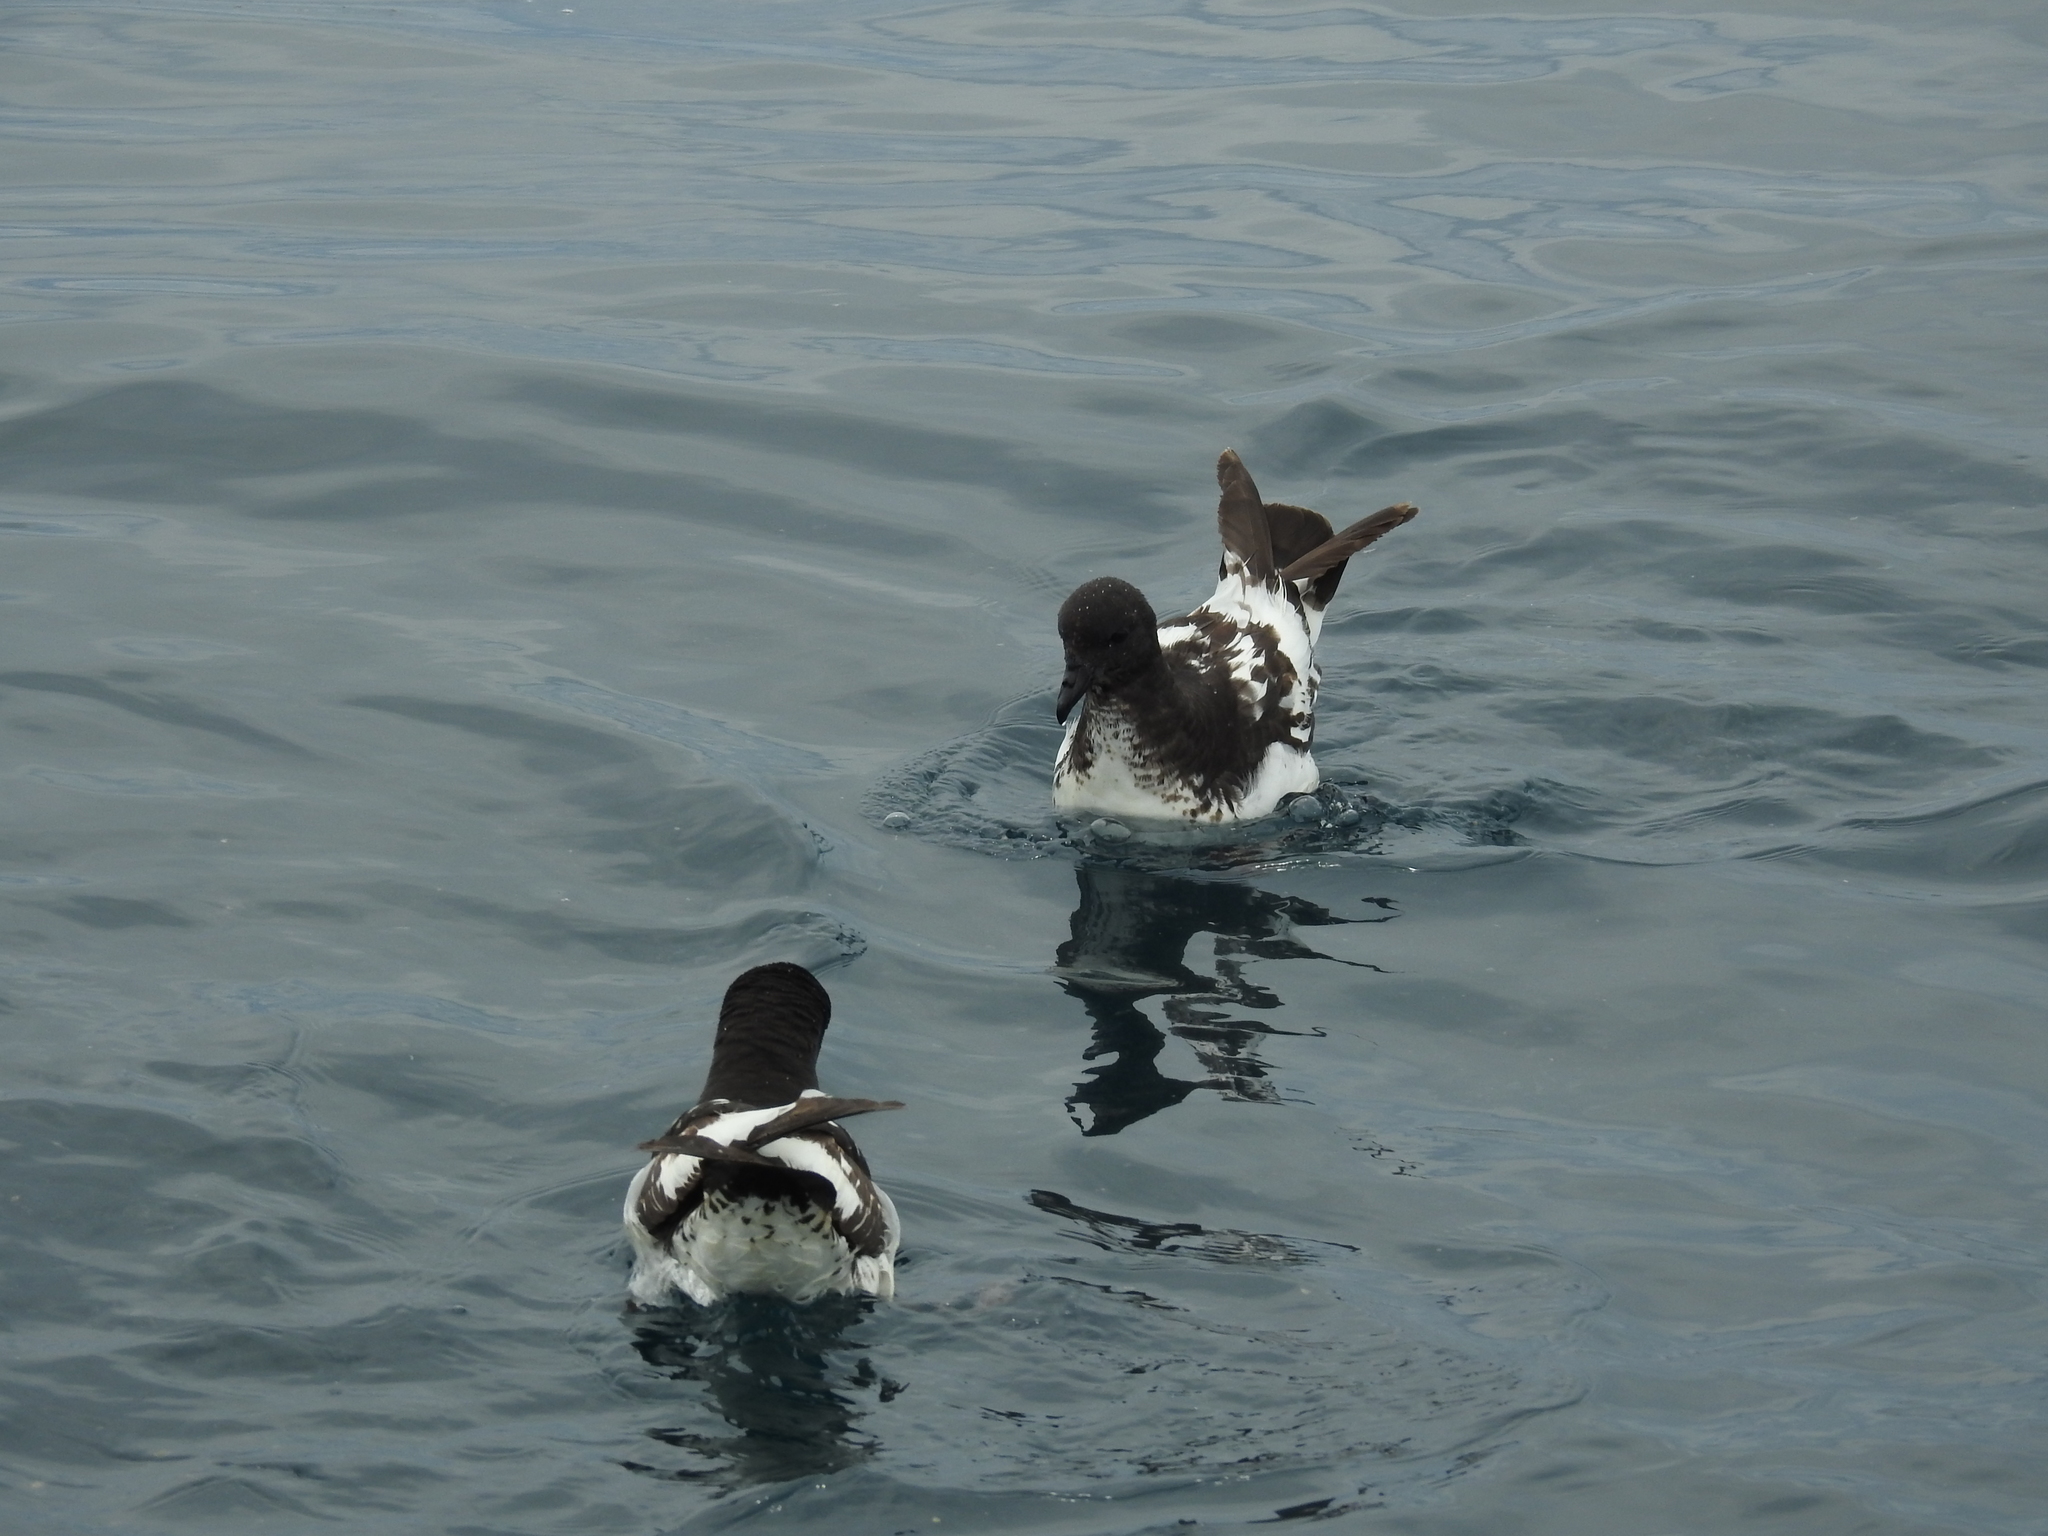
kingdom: Animalia
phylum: Chordata
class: Aves
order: Procellariiformes
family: Procellariidae
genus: Daption
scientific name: Daption capense
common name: Cape petrel
